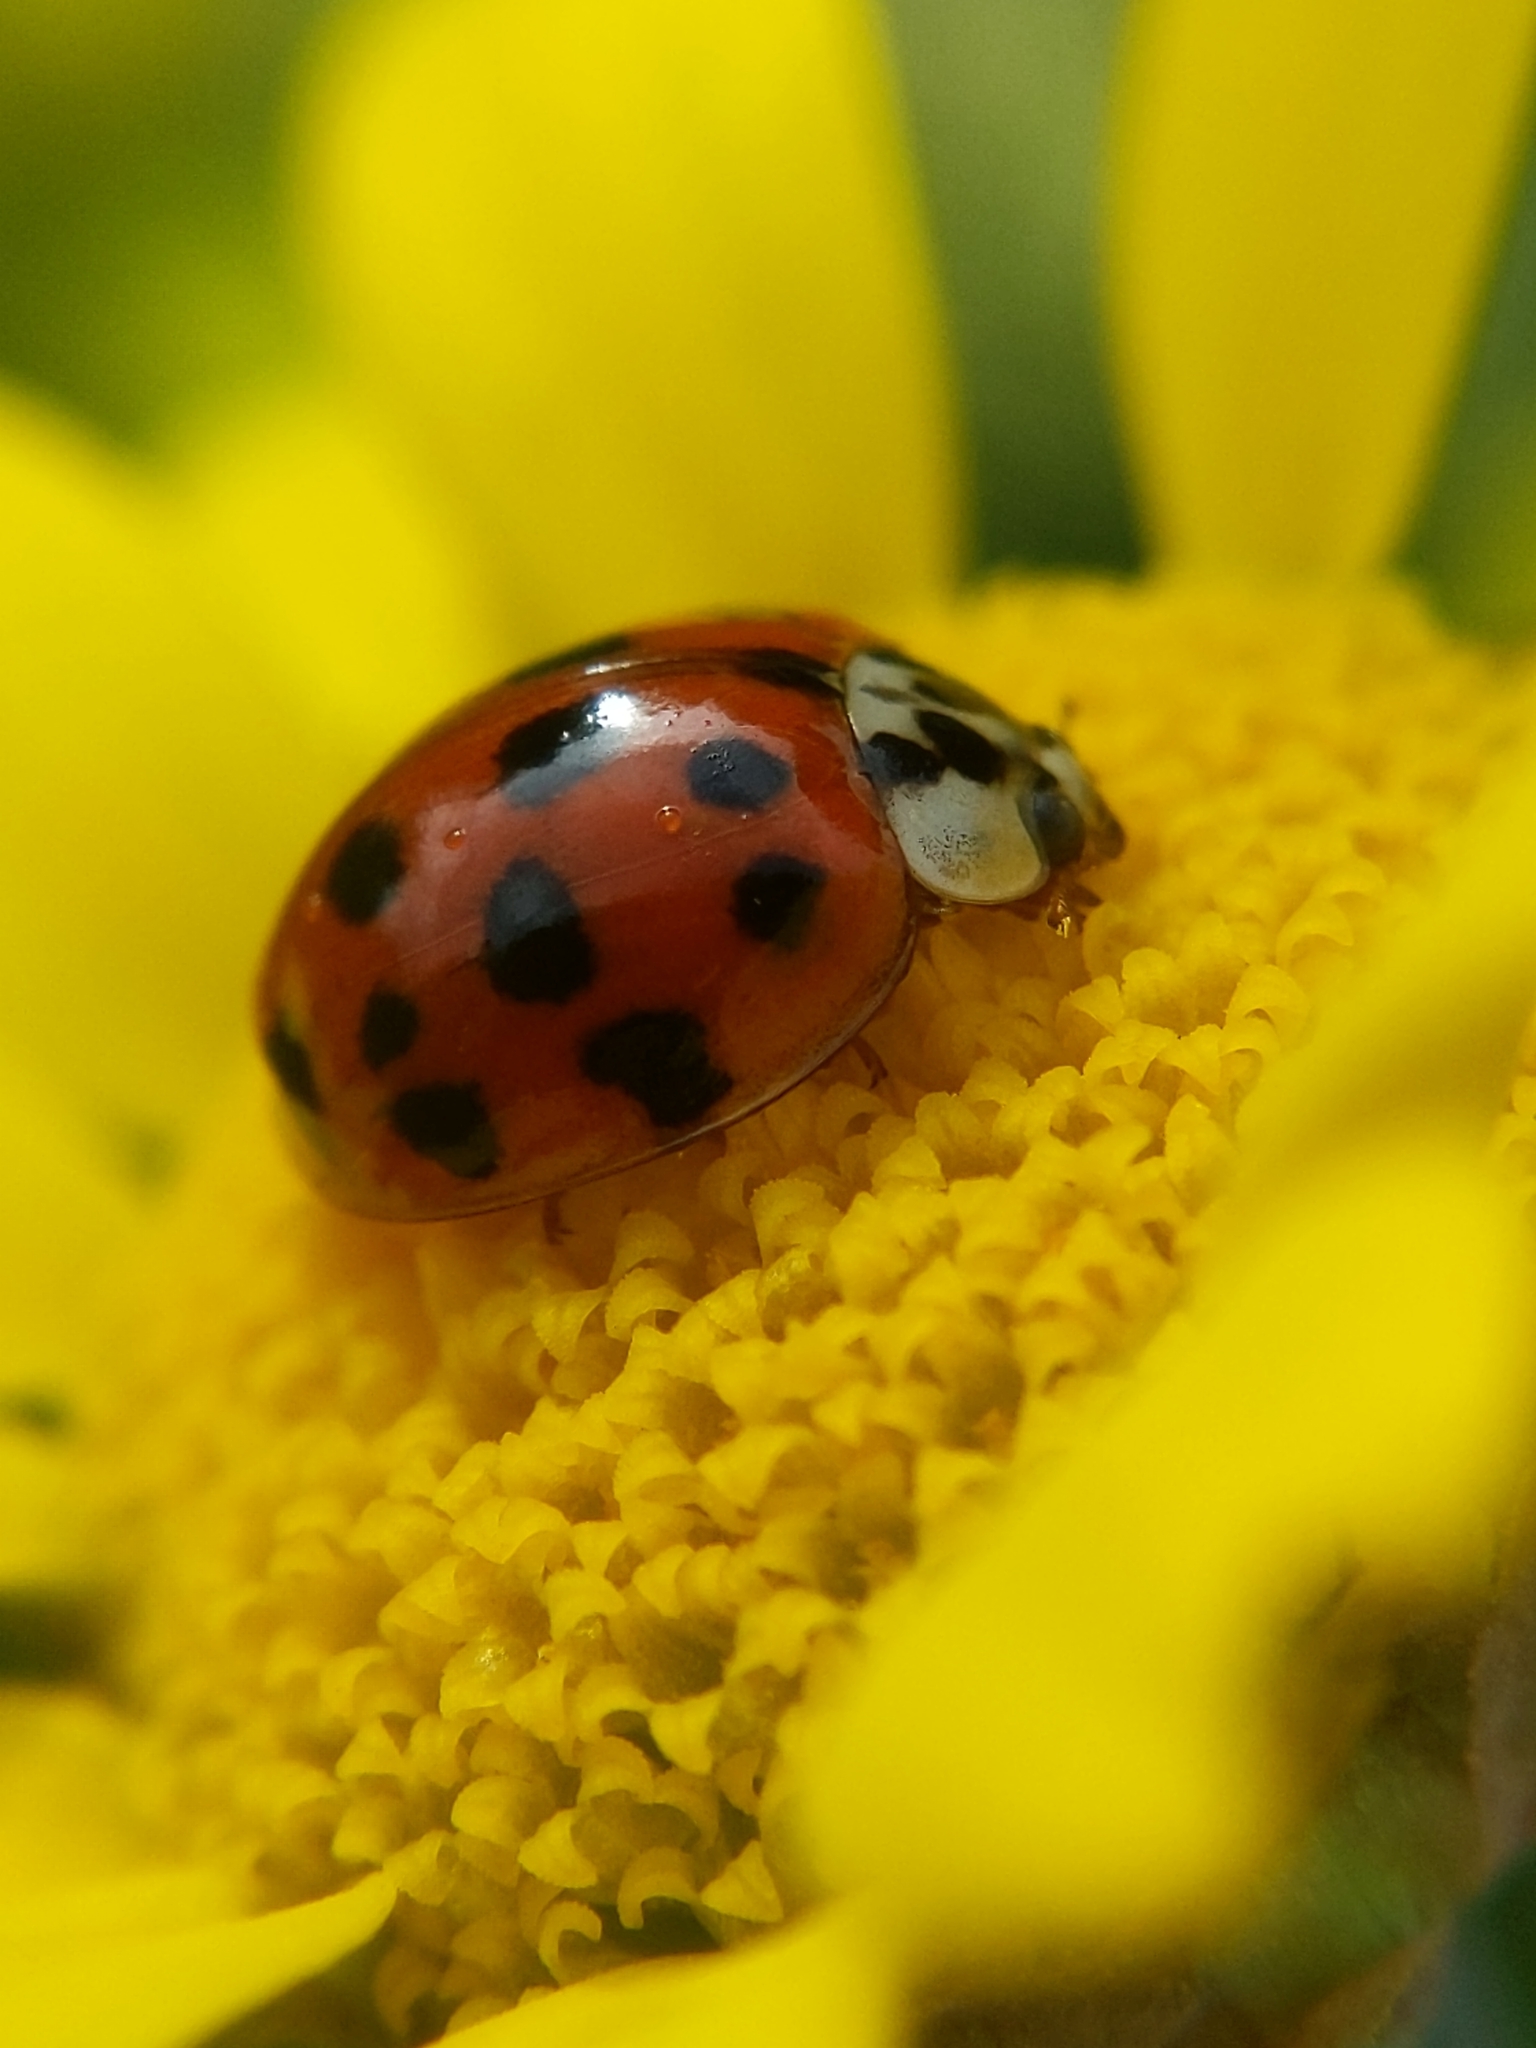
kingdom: Animalia
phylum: Arthropoda
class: Insecta
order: Coleoptera
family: Coccinellidae
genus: Harmonia
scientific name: Harmonia axyridis
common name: Harlequin ladybird
